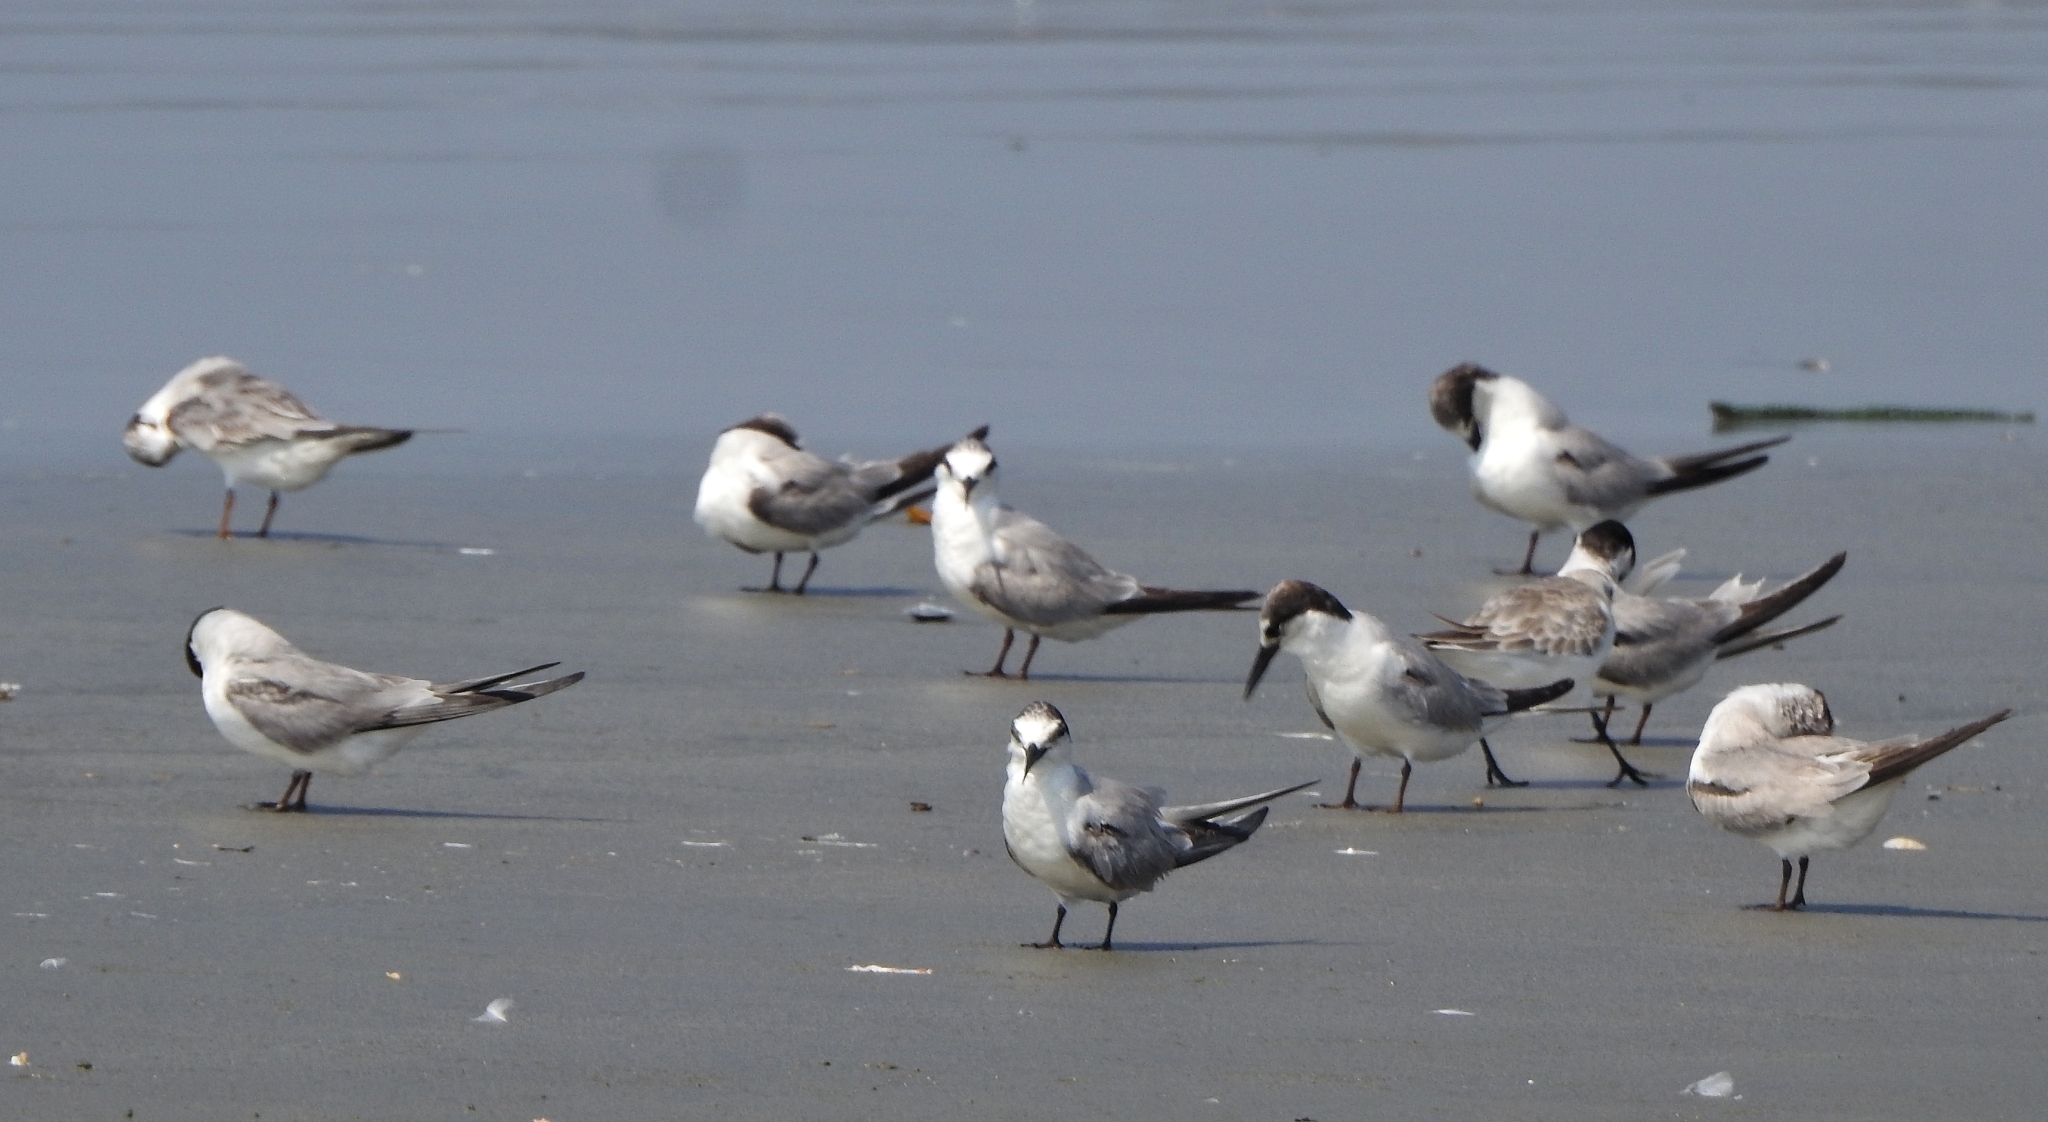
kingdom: Animalia
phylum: Chordata
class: Aves
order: Charadriiformes
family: Laridae
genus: Sternula
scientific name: Sternula albifrons
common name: Little tern
